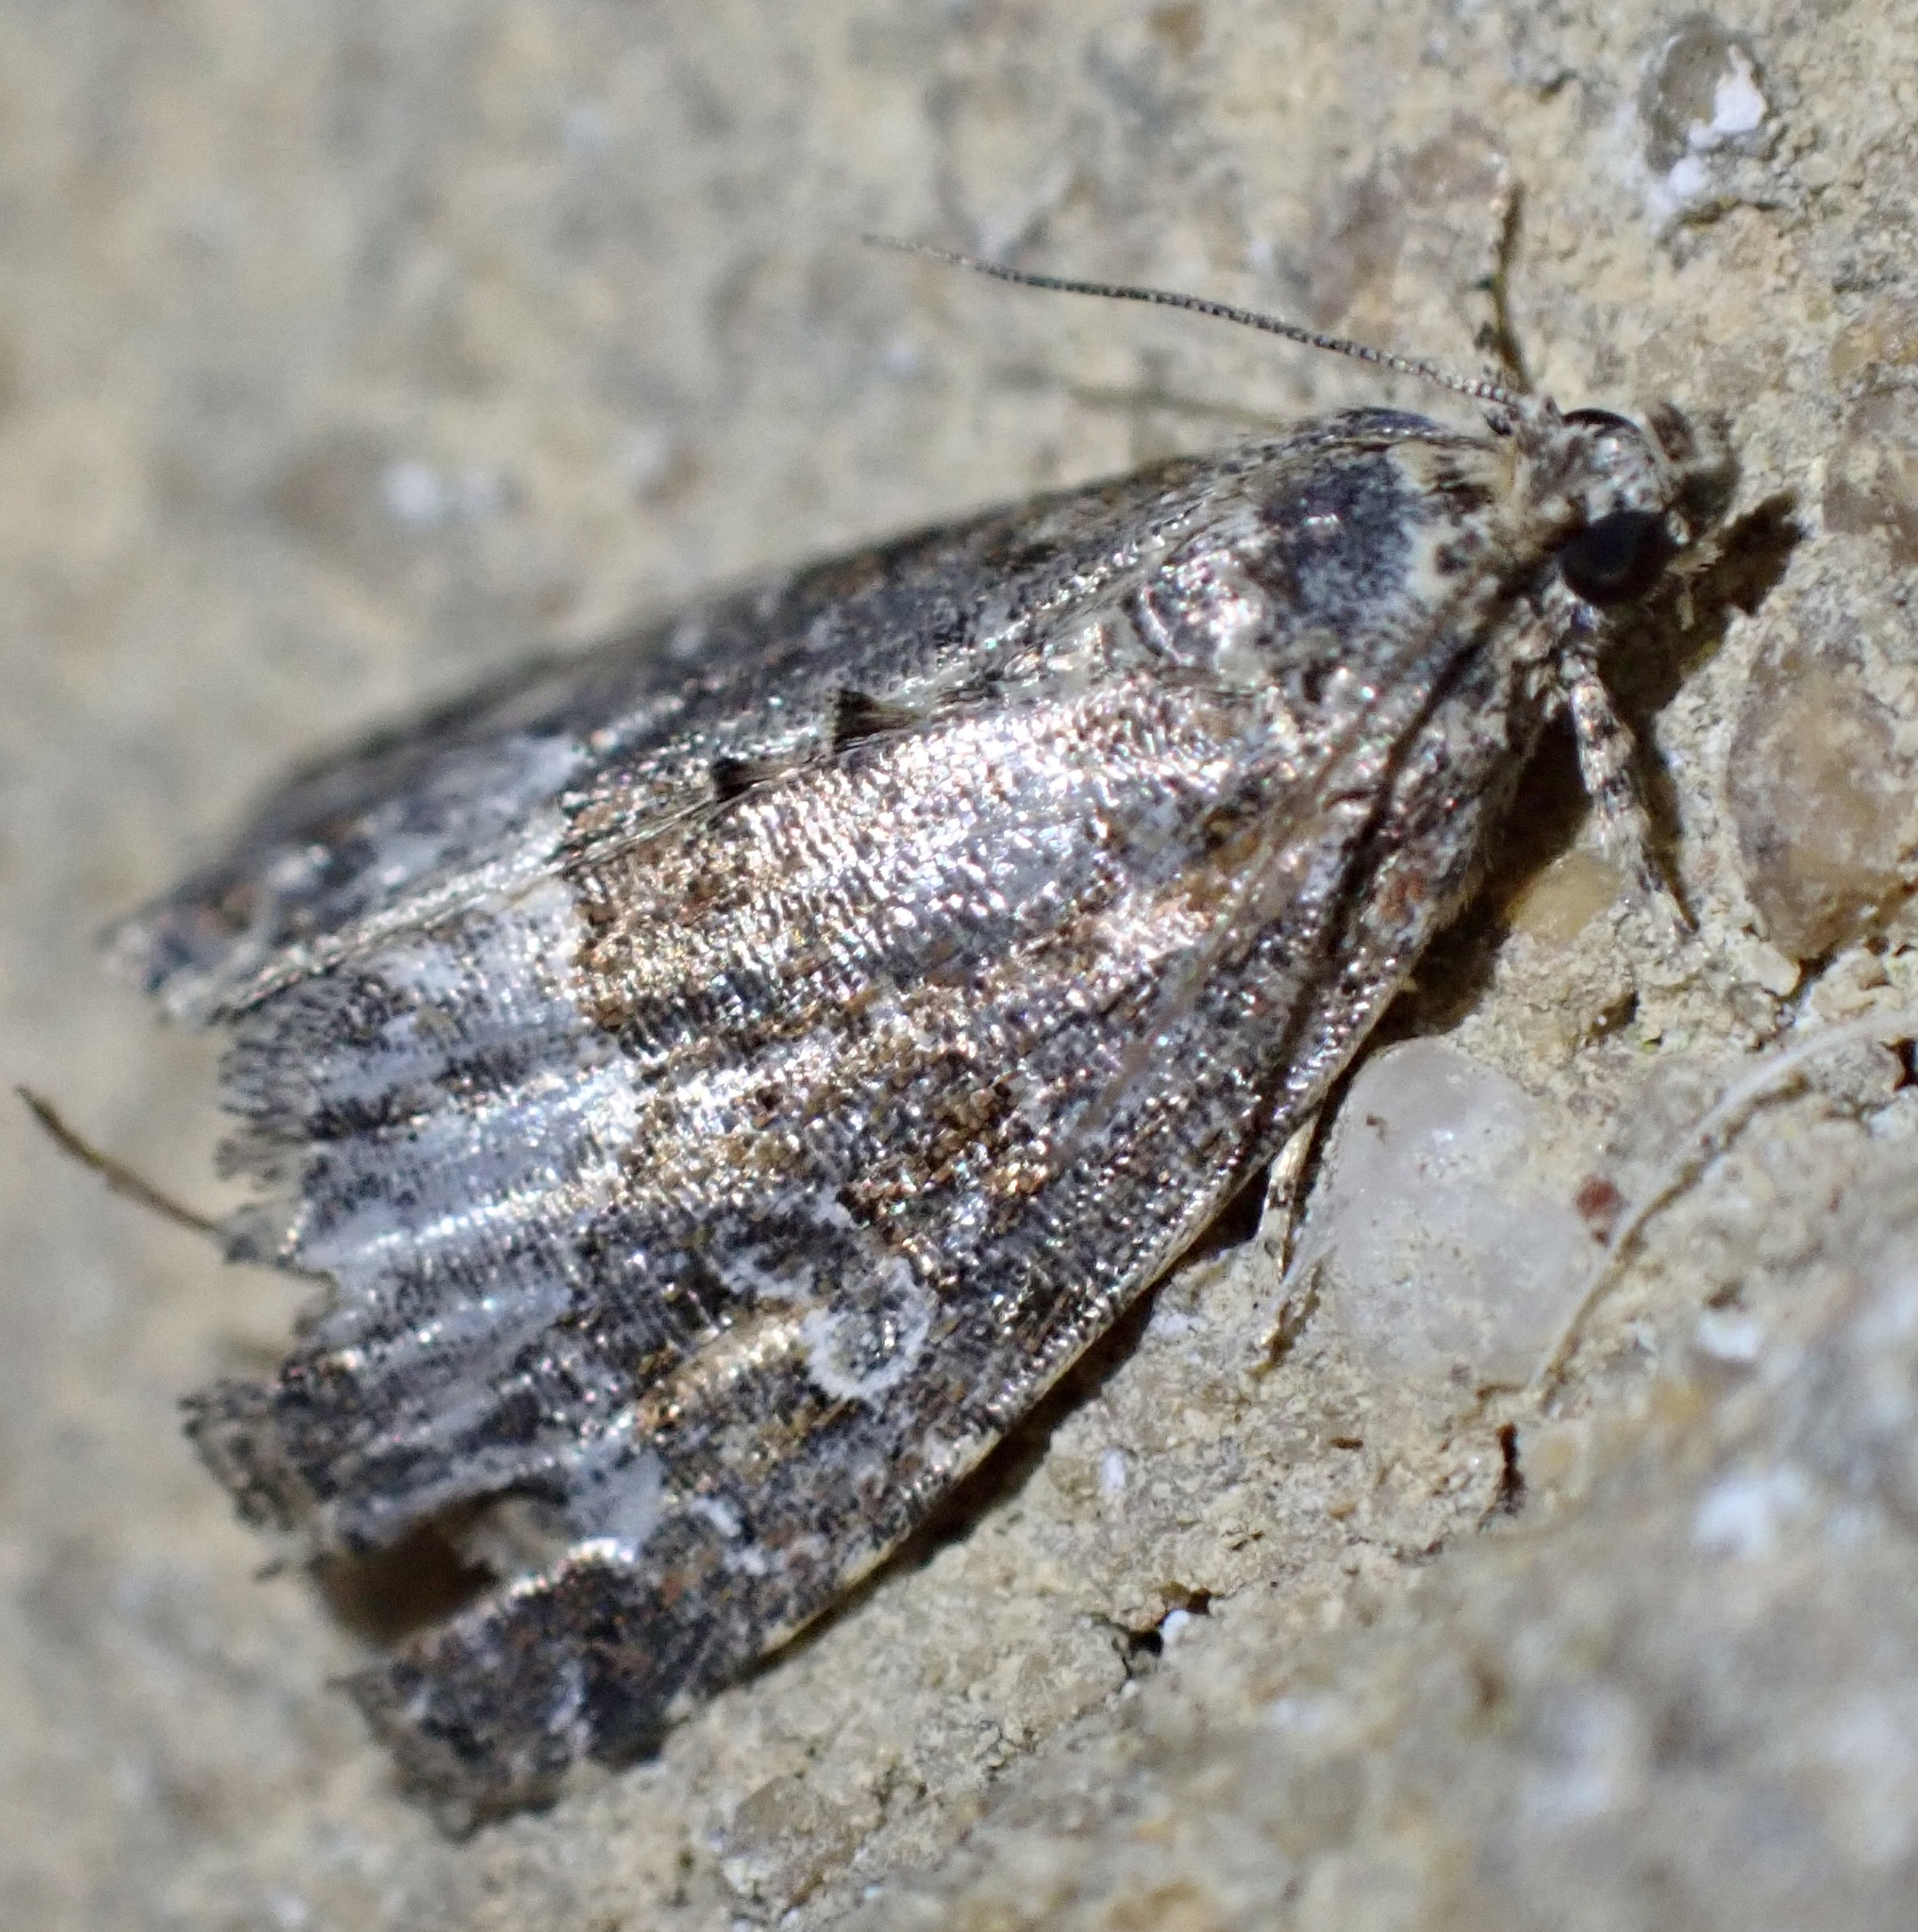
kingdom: Animalia
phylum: Arthropoda
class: Insecta
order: Lepidoptera
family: Noctuidae
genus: Deltote
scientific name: Deltote pygarga
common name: Marbled white spot
